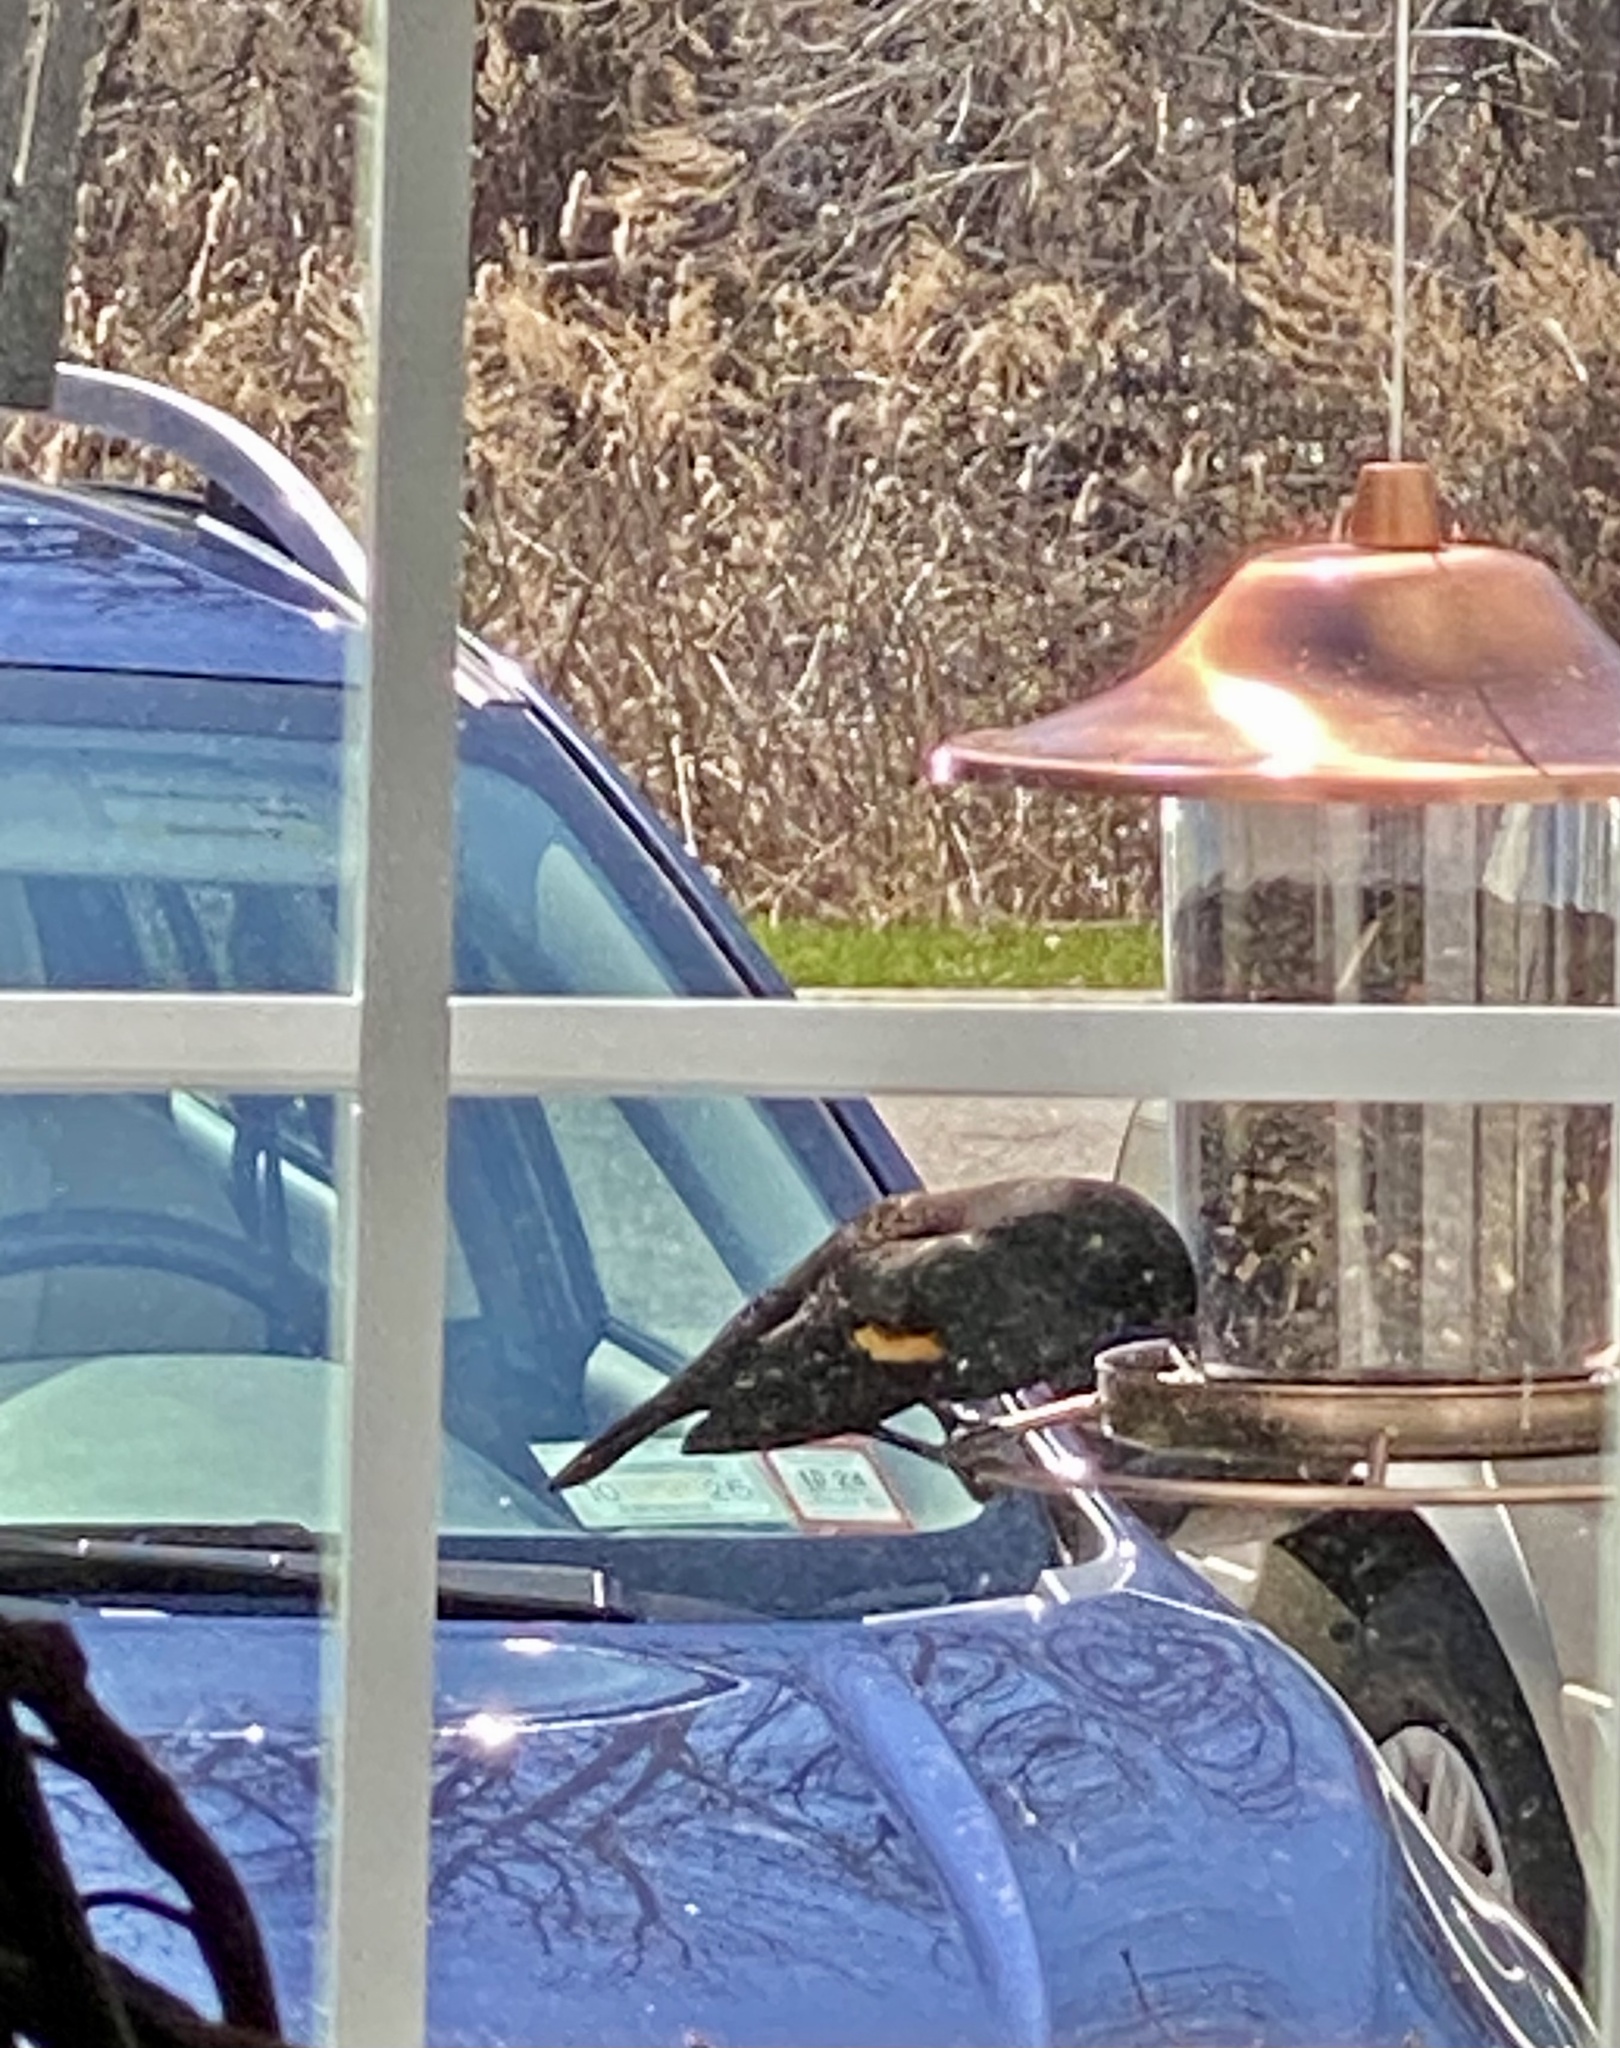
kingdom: Animalia
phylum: Chordata
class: Aves
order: Passeriformes
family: Icteridae
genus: Agelaius
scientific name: Agelaius phoeniceus
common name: Red-winged blackbird
